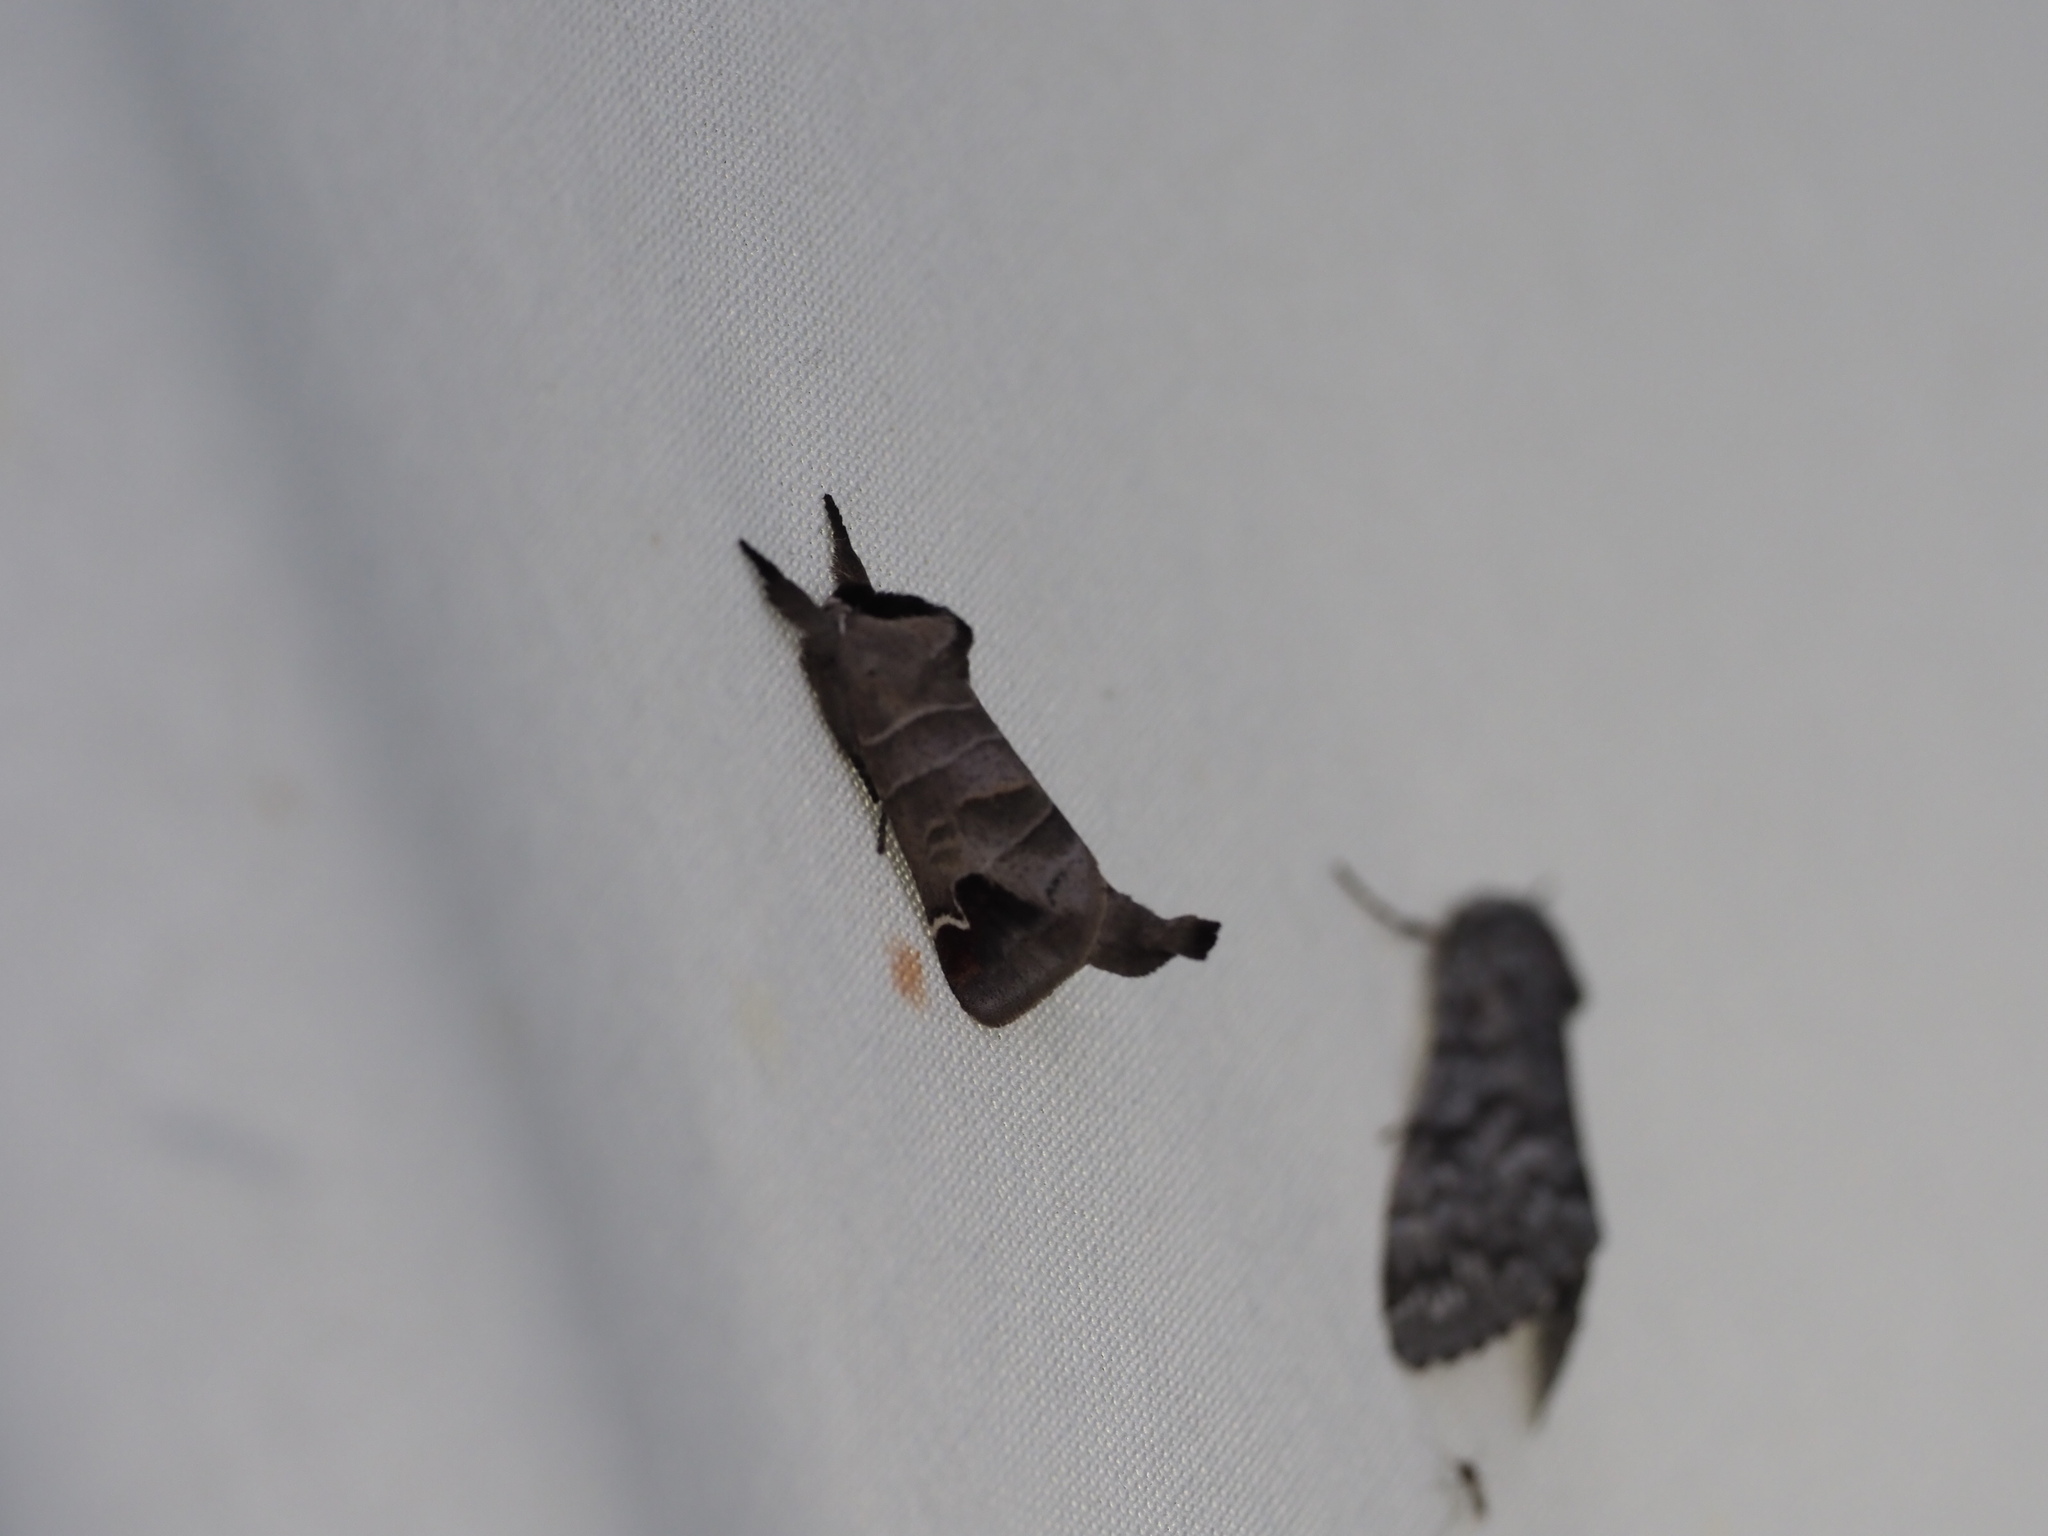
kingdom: Animalia
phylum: Arthropoda
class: Insecta
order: Lepidoptera
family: Notodontidae
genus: Clostera
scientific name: Clostera albosigma
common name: Sigmoid prominent
